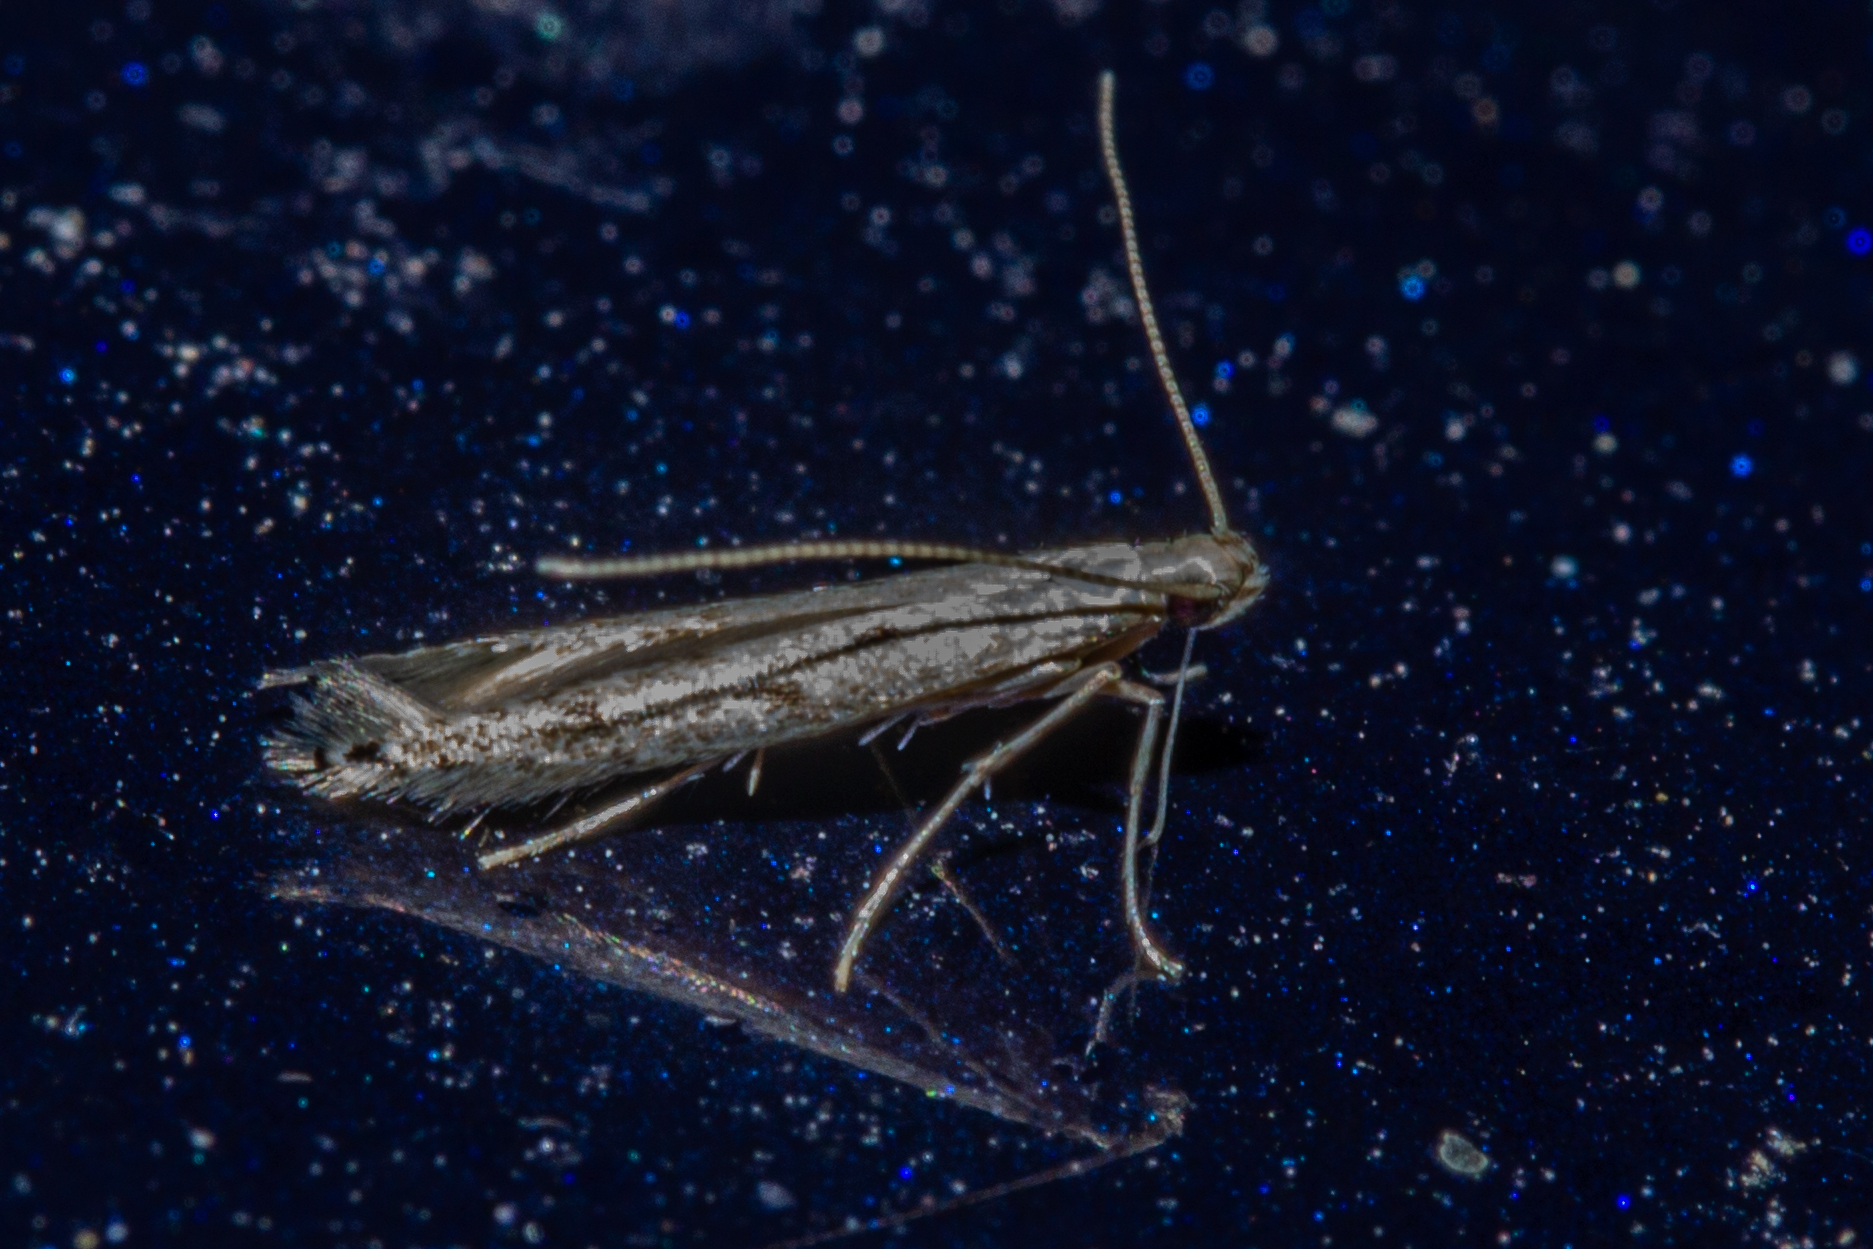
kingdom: Animalia
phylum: Arthropoda
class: Insecta
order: Lepidoptera
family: Batrachedridae
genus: Batrachedra
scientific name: Batrachedra psithyra
